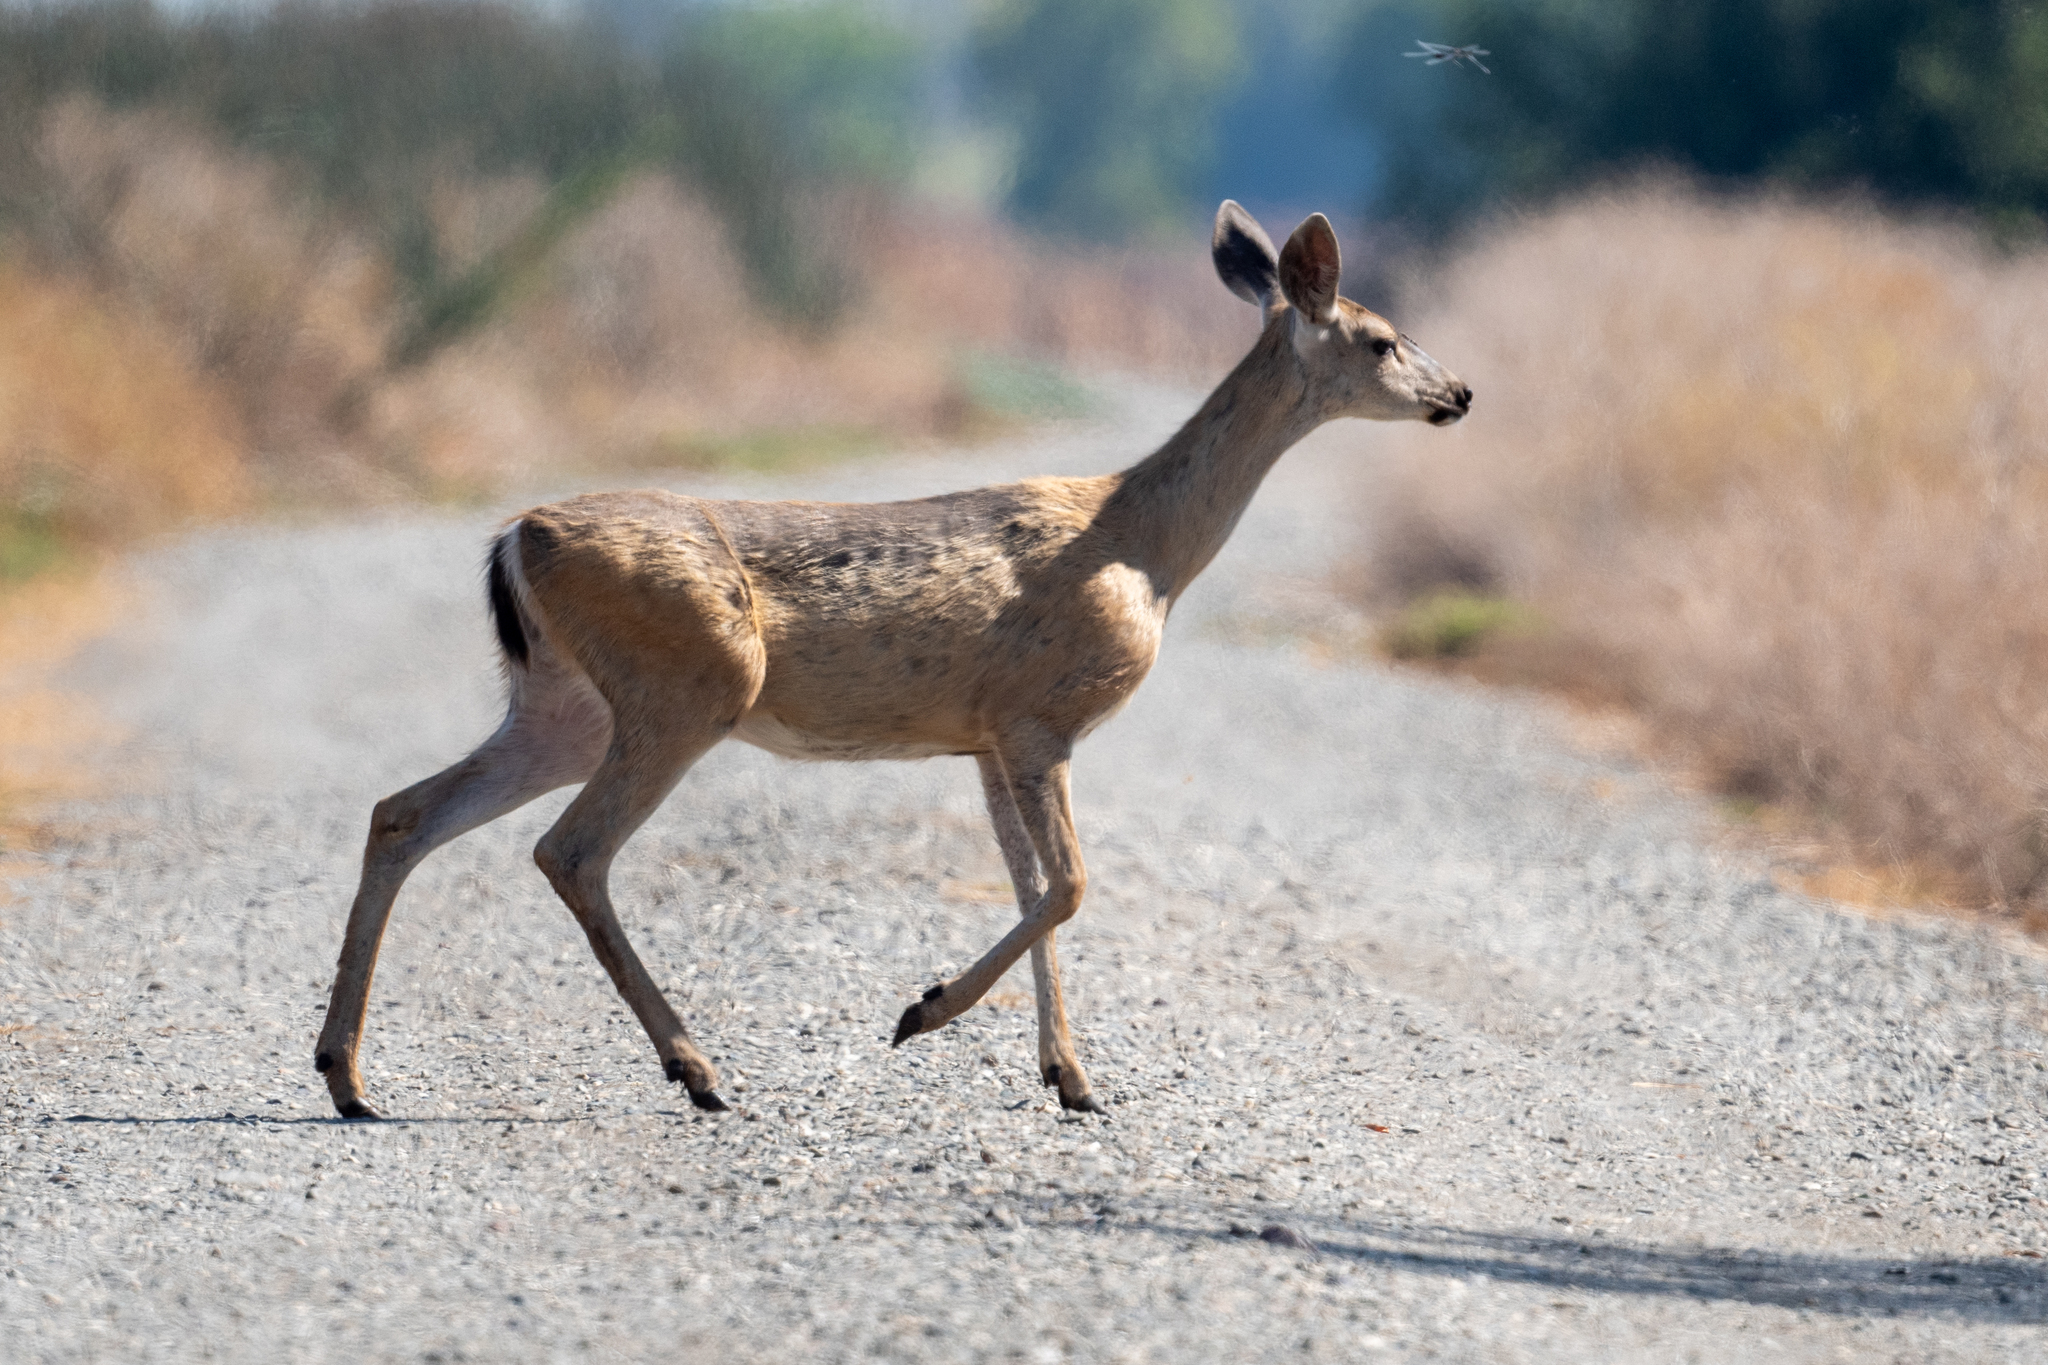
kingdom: Animalia
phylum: Chordata
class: Mammalia
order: Artiodactyla
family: Cervidae
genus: Odocoileus
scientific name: Odocoileus hemionus
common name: Mule deer
